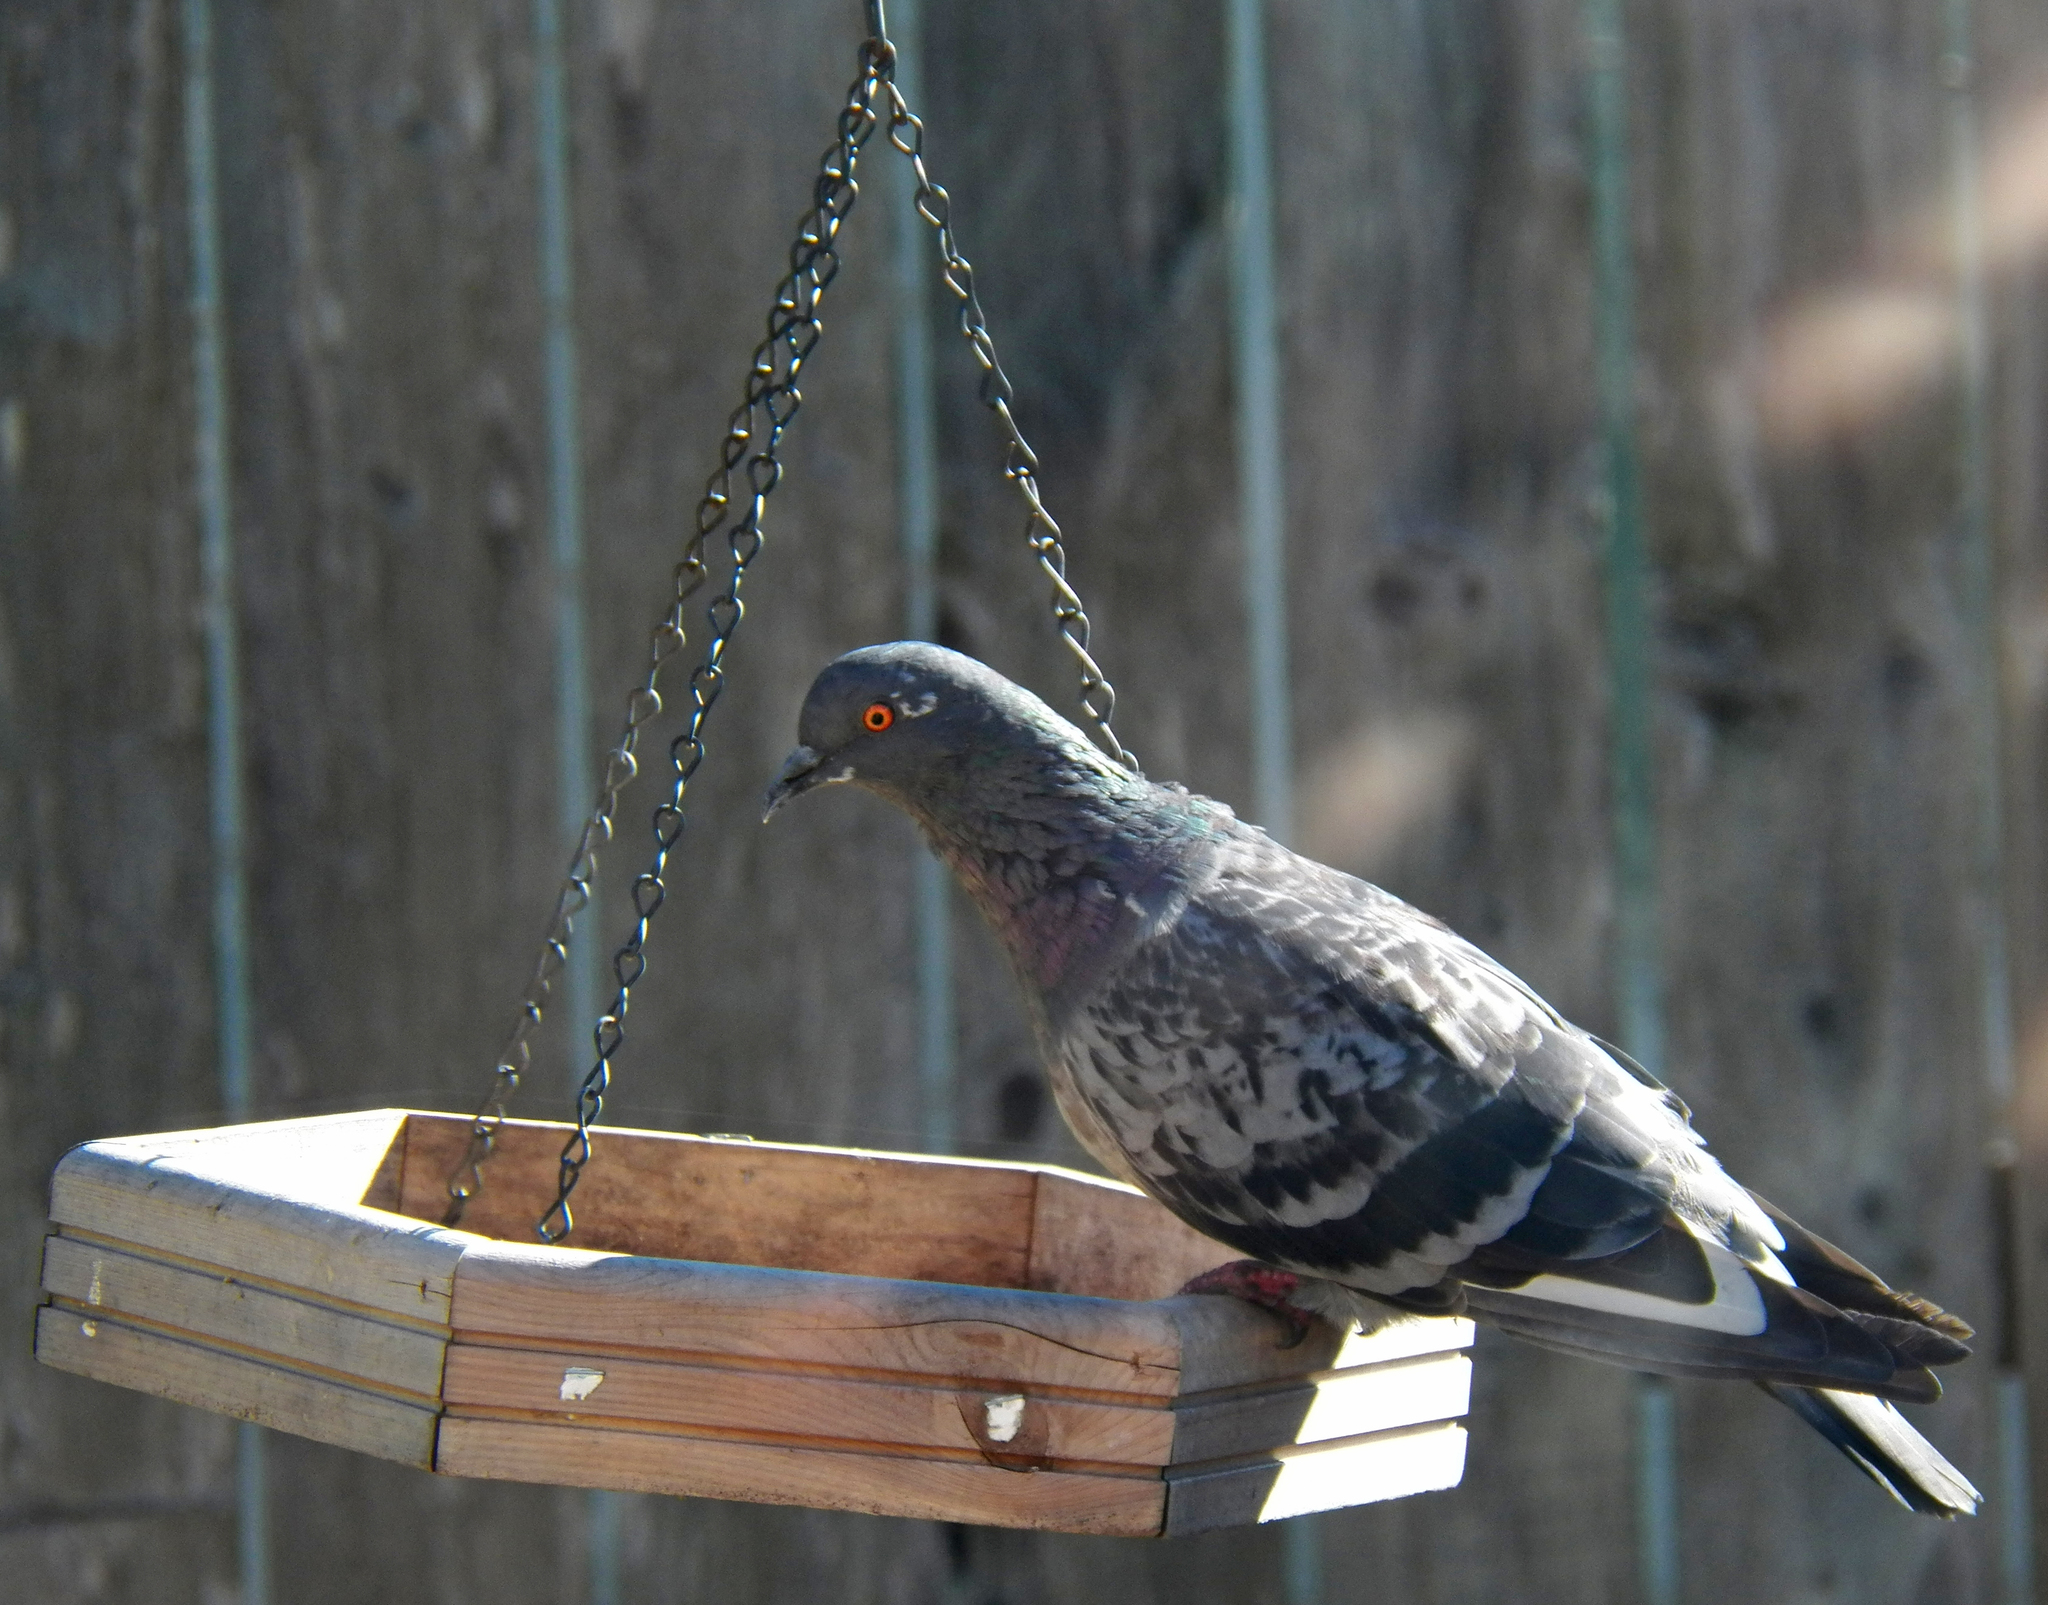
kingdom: Animalia
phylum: Chordata
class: Aves
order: Columbiformes
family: Columbidae
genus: Columba
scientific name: Columba livia
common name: Rock pigeon
